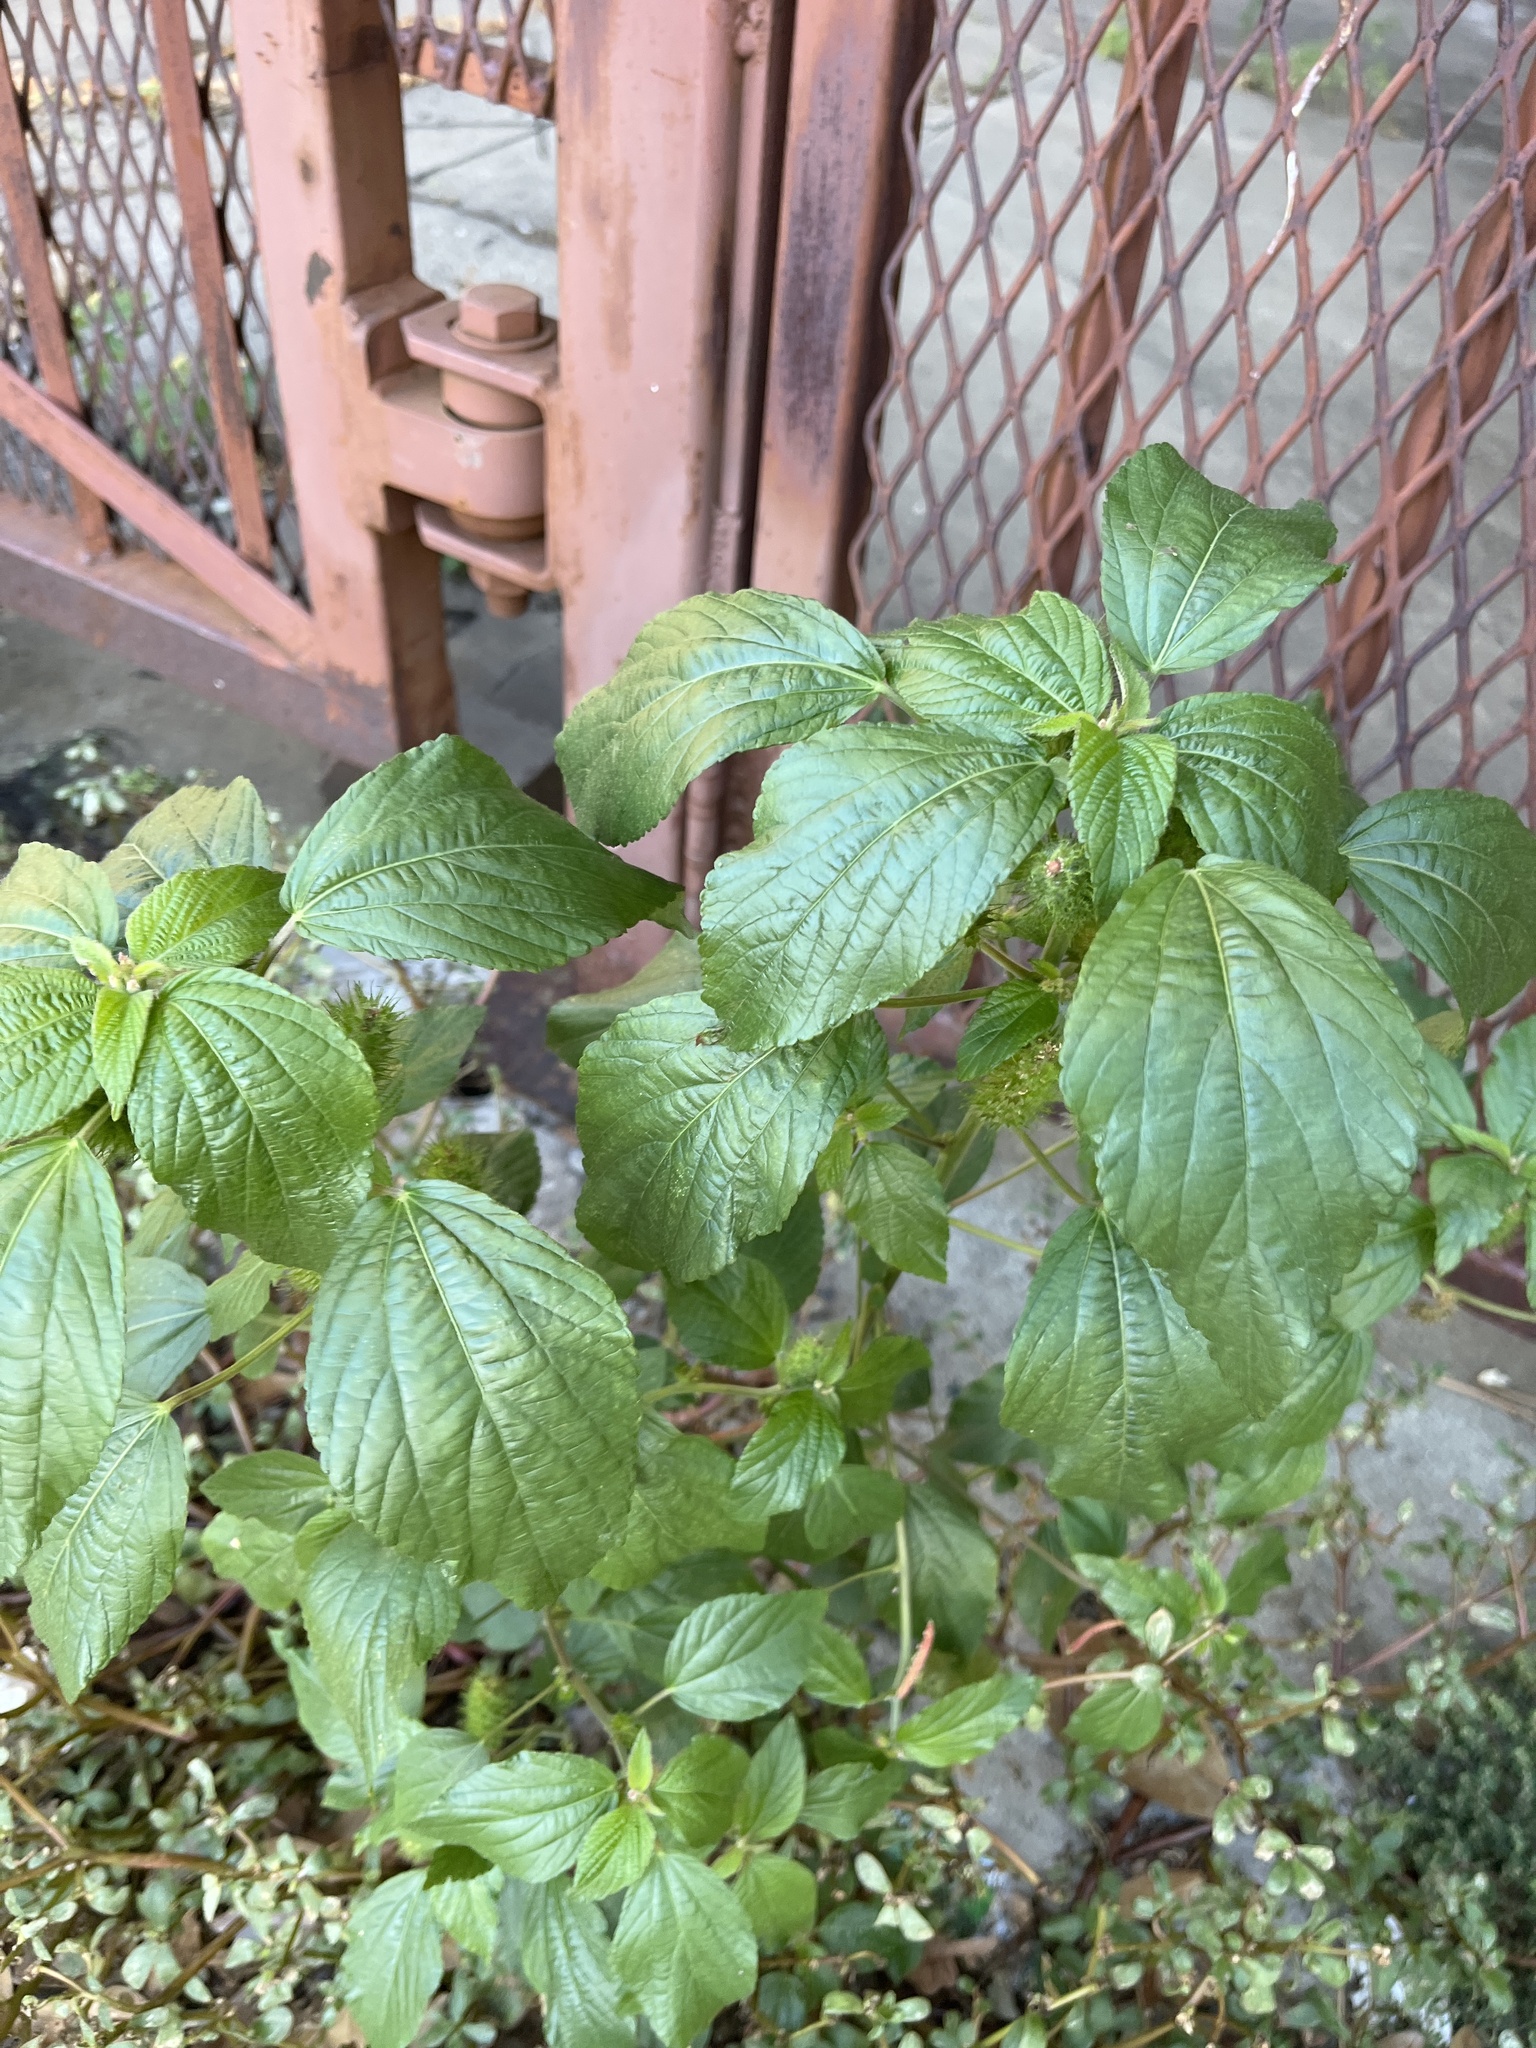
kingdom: Plantae
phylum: Tracheophyta
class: Magnoliopsida
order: Rosales
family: Urticaceae
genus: Boehmeria
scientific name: Boehmeria cylindrica
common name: Bog-hemp
